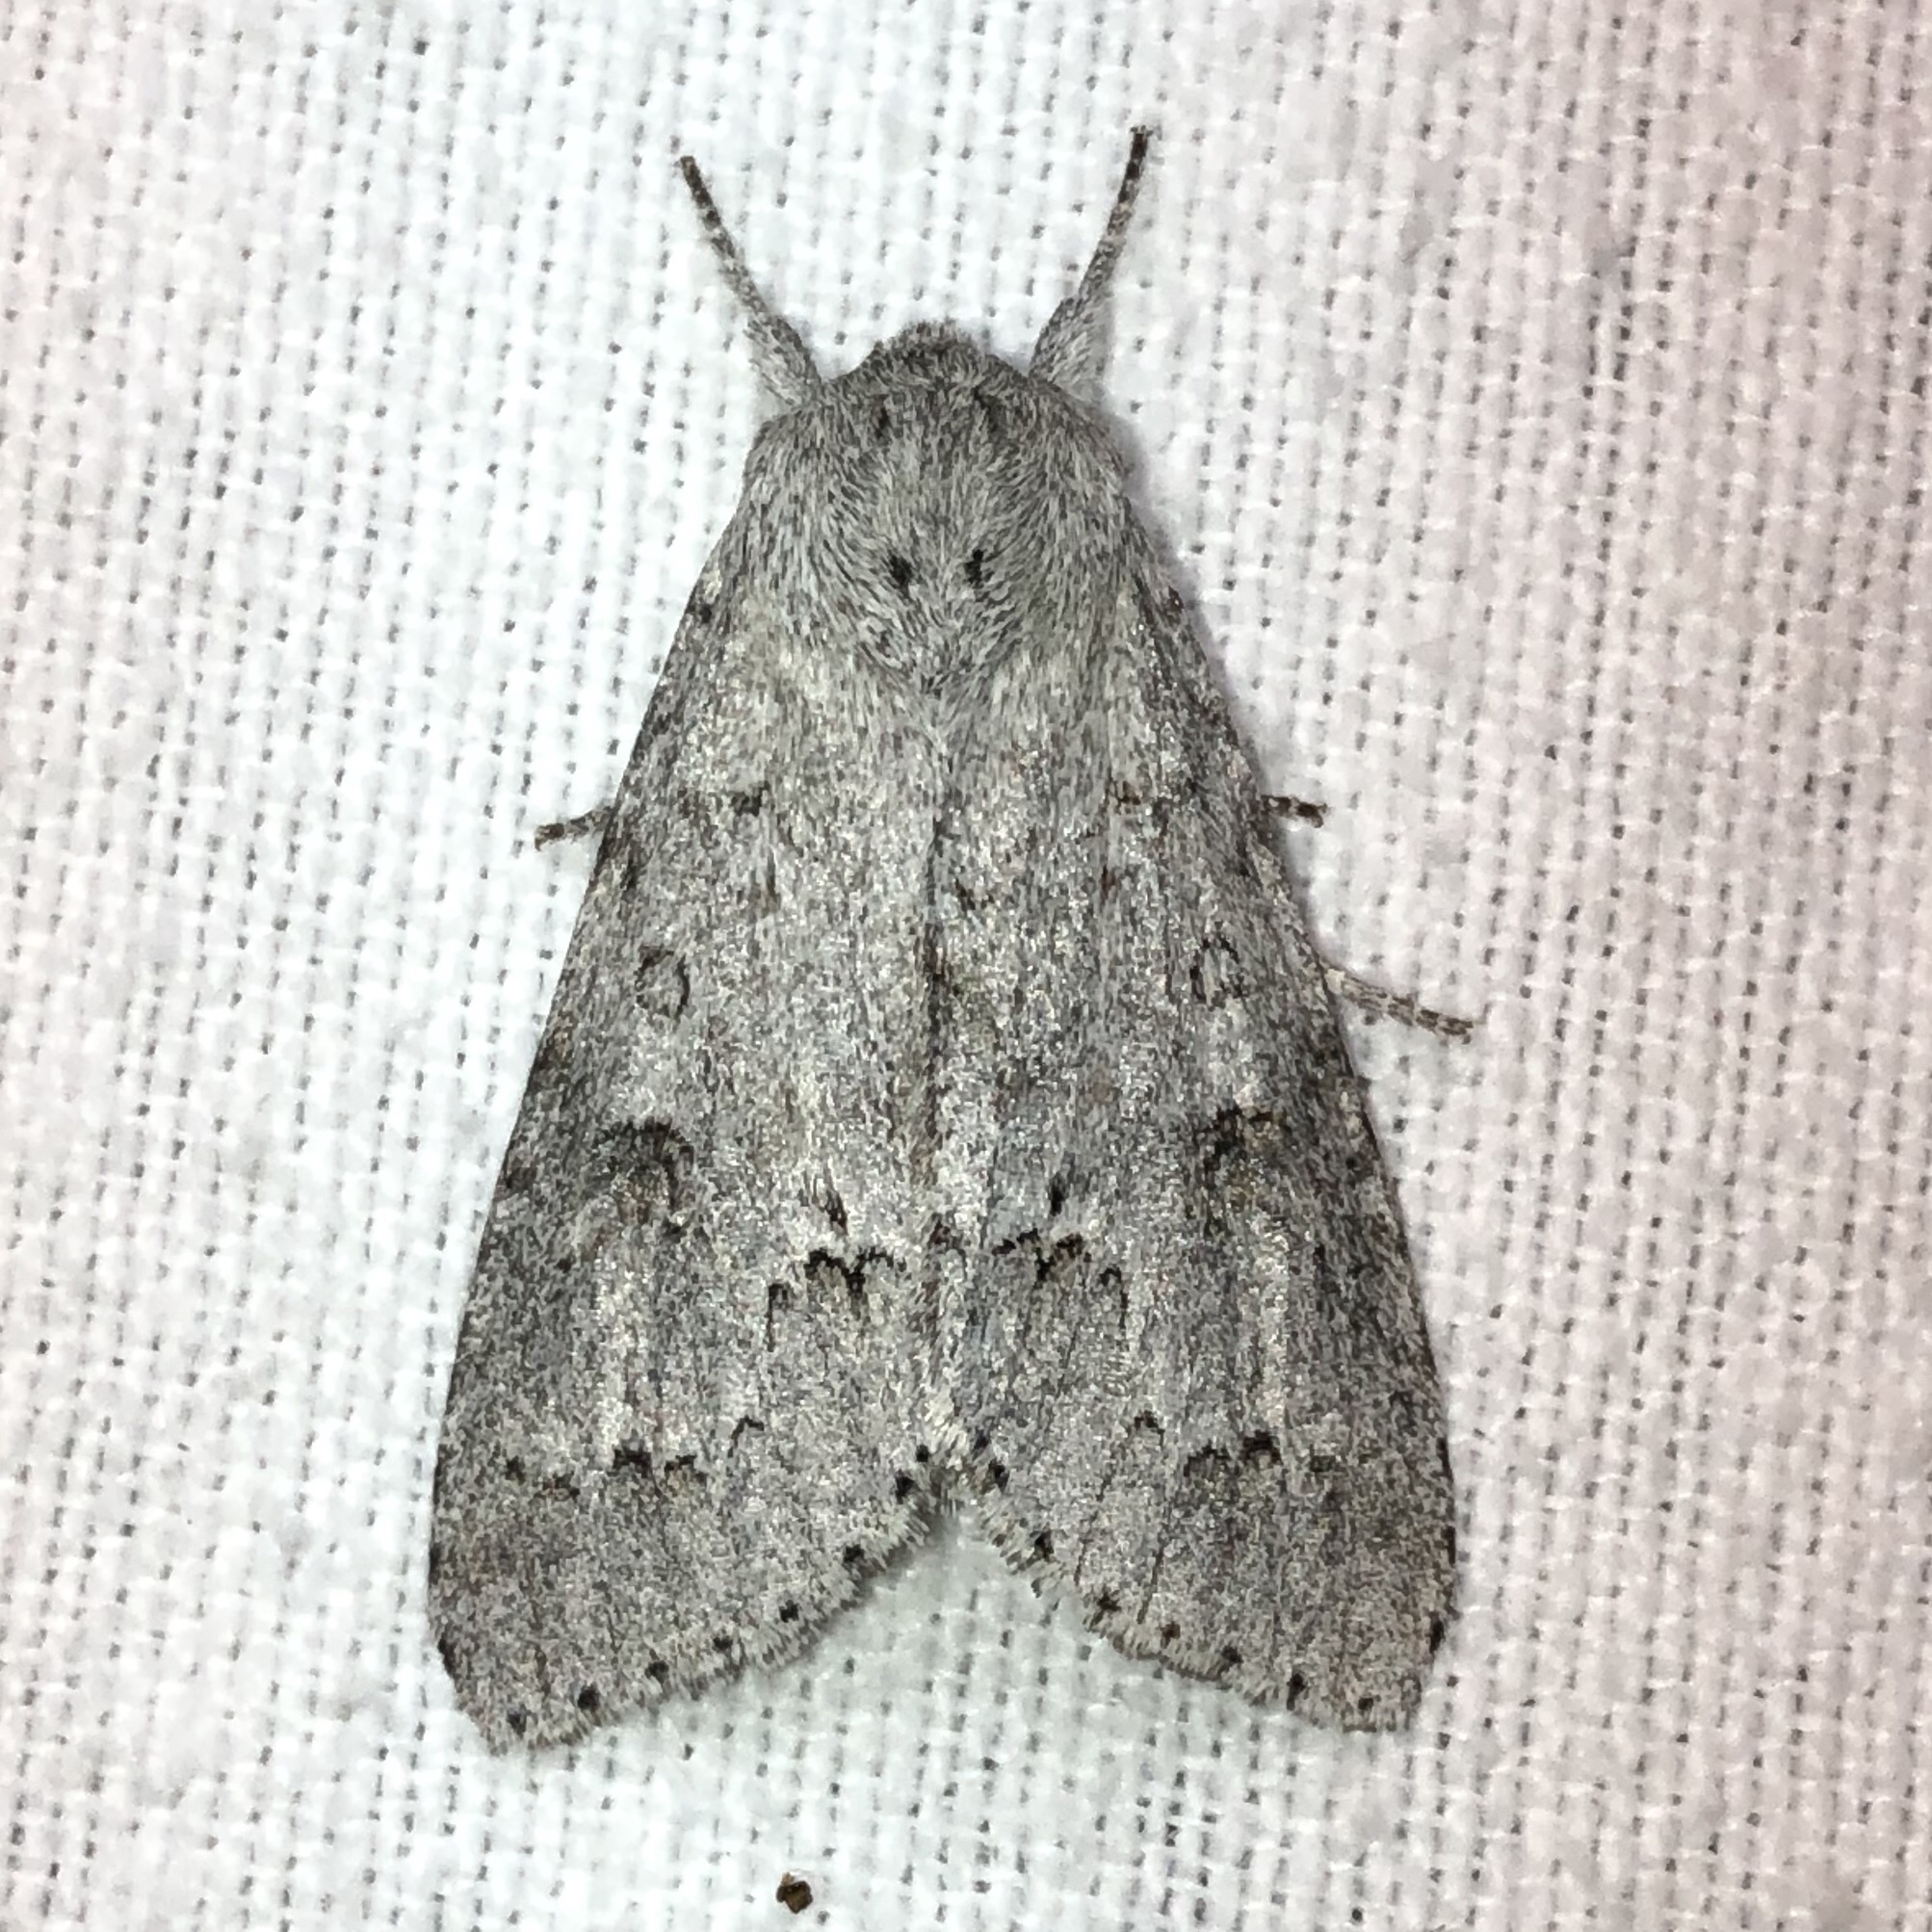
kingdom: Animalia
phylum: Arthropoda
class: Insecta
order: Lepidoptera
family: Noctuidae
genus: Acronicta
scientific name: Acronicta insita
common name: Large gray dagger
